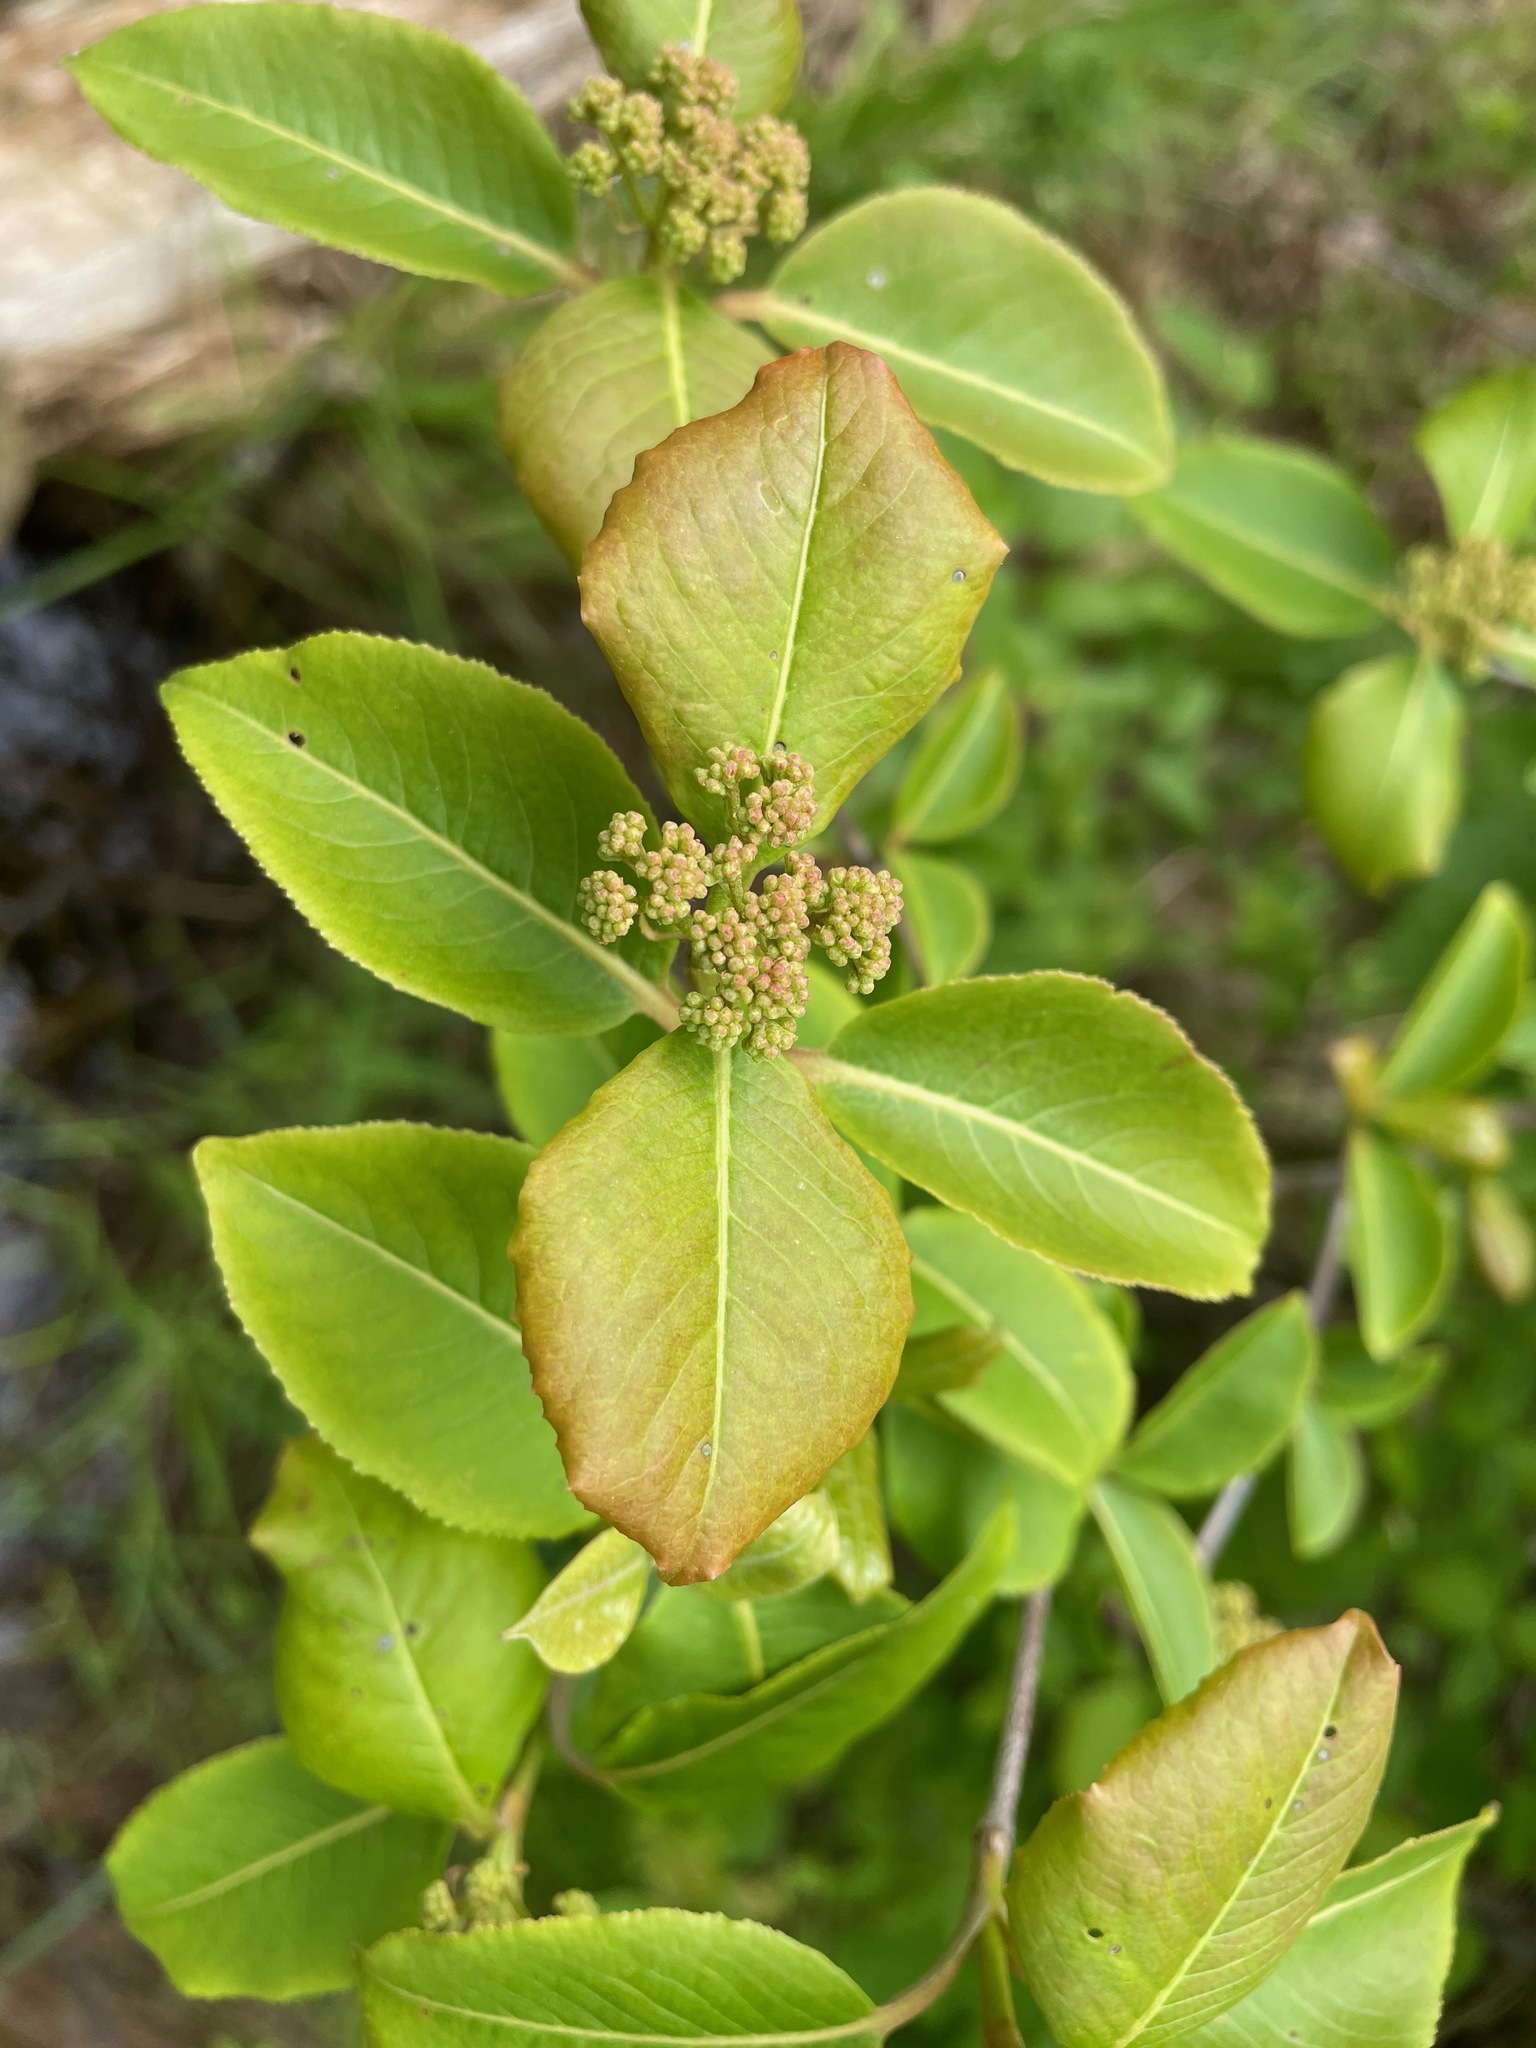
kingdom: Plantae
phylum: Tracheophyta
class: Magnoliopsida
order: Dipsacales
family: Viburnaceae
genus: Viburnum
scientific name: Viburnum cassinoides
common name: Swamp haw
